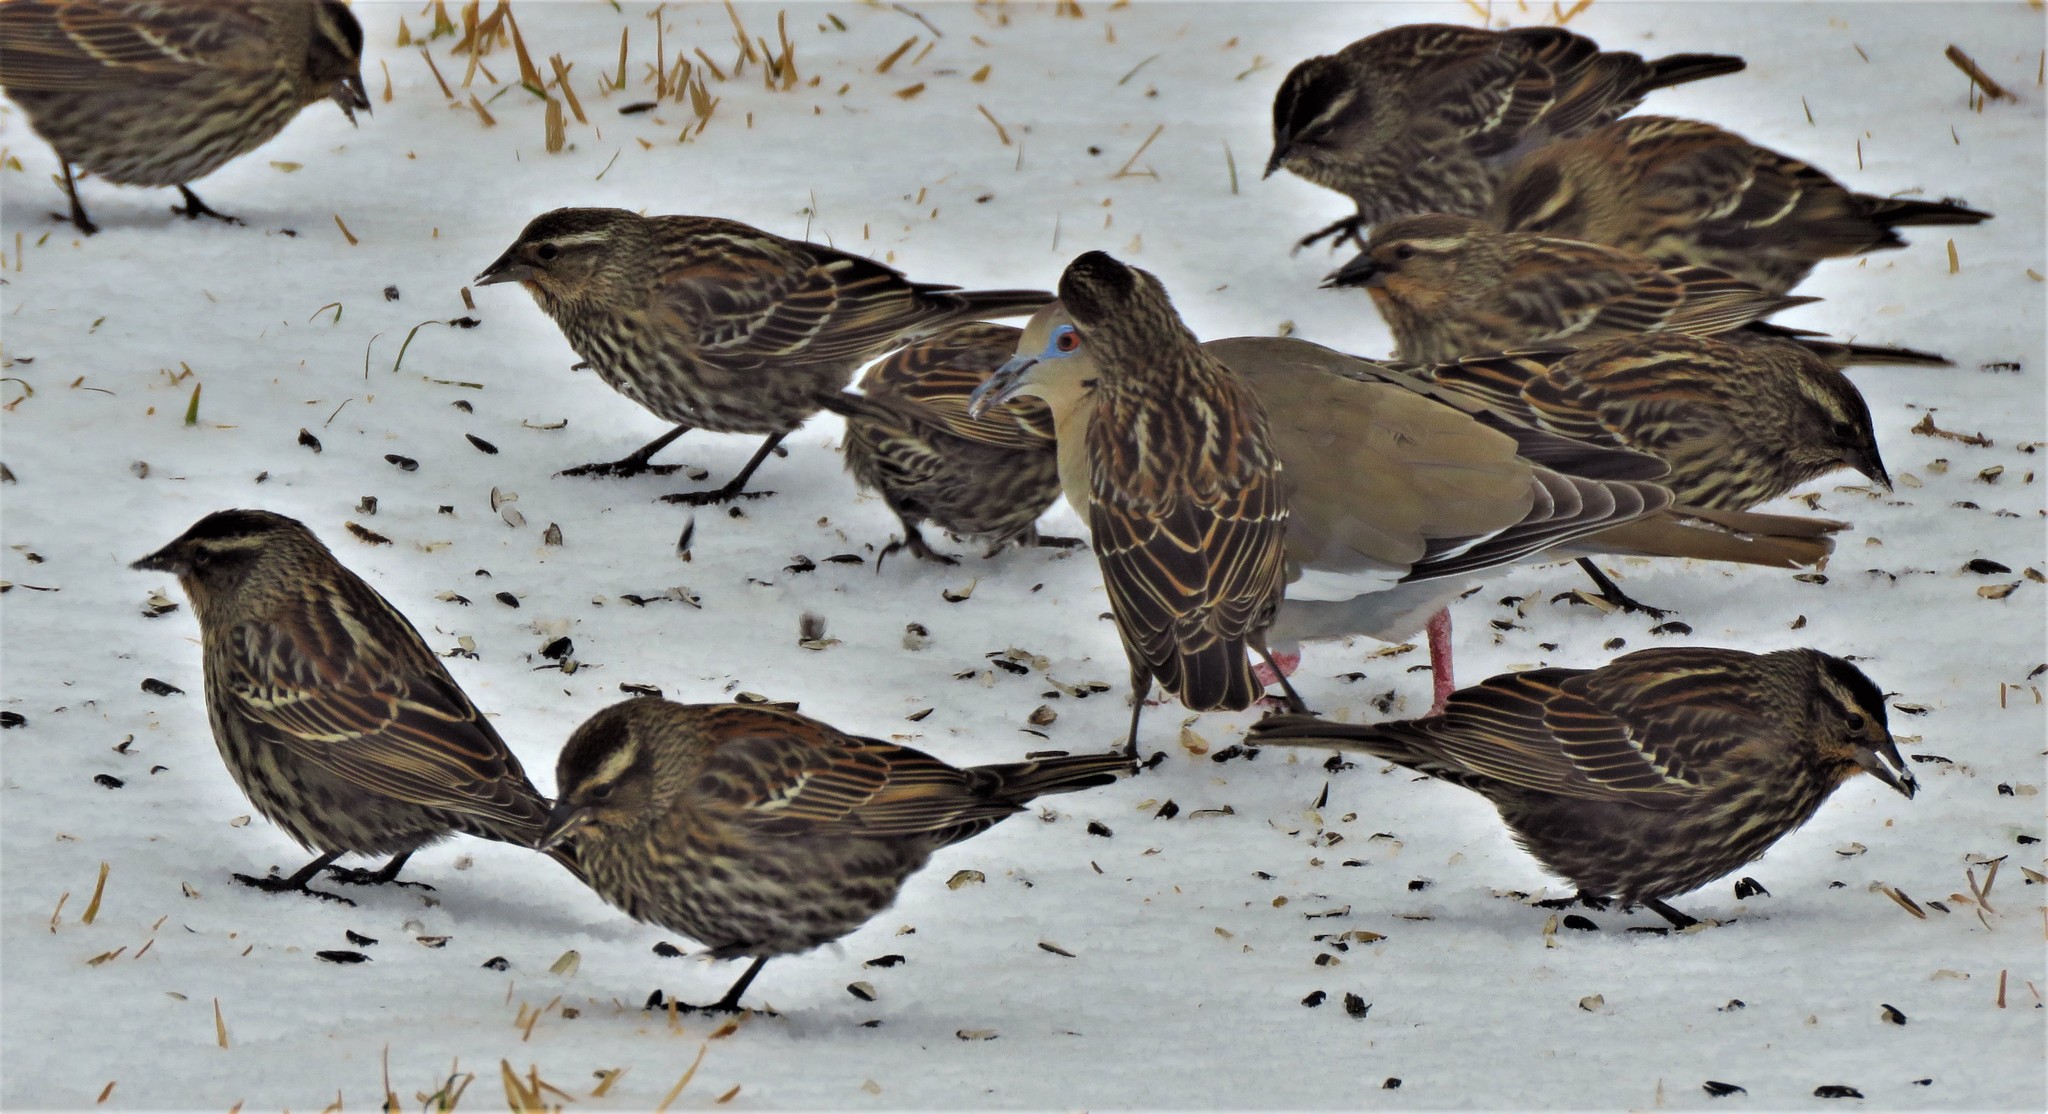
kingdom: Animalia
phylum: Chordata
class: Aves
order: Passeriformes
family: Icteridae
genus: Agelaius
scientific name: Agelaius phoeniceus
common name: Red-winged blackbird
